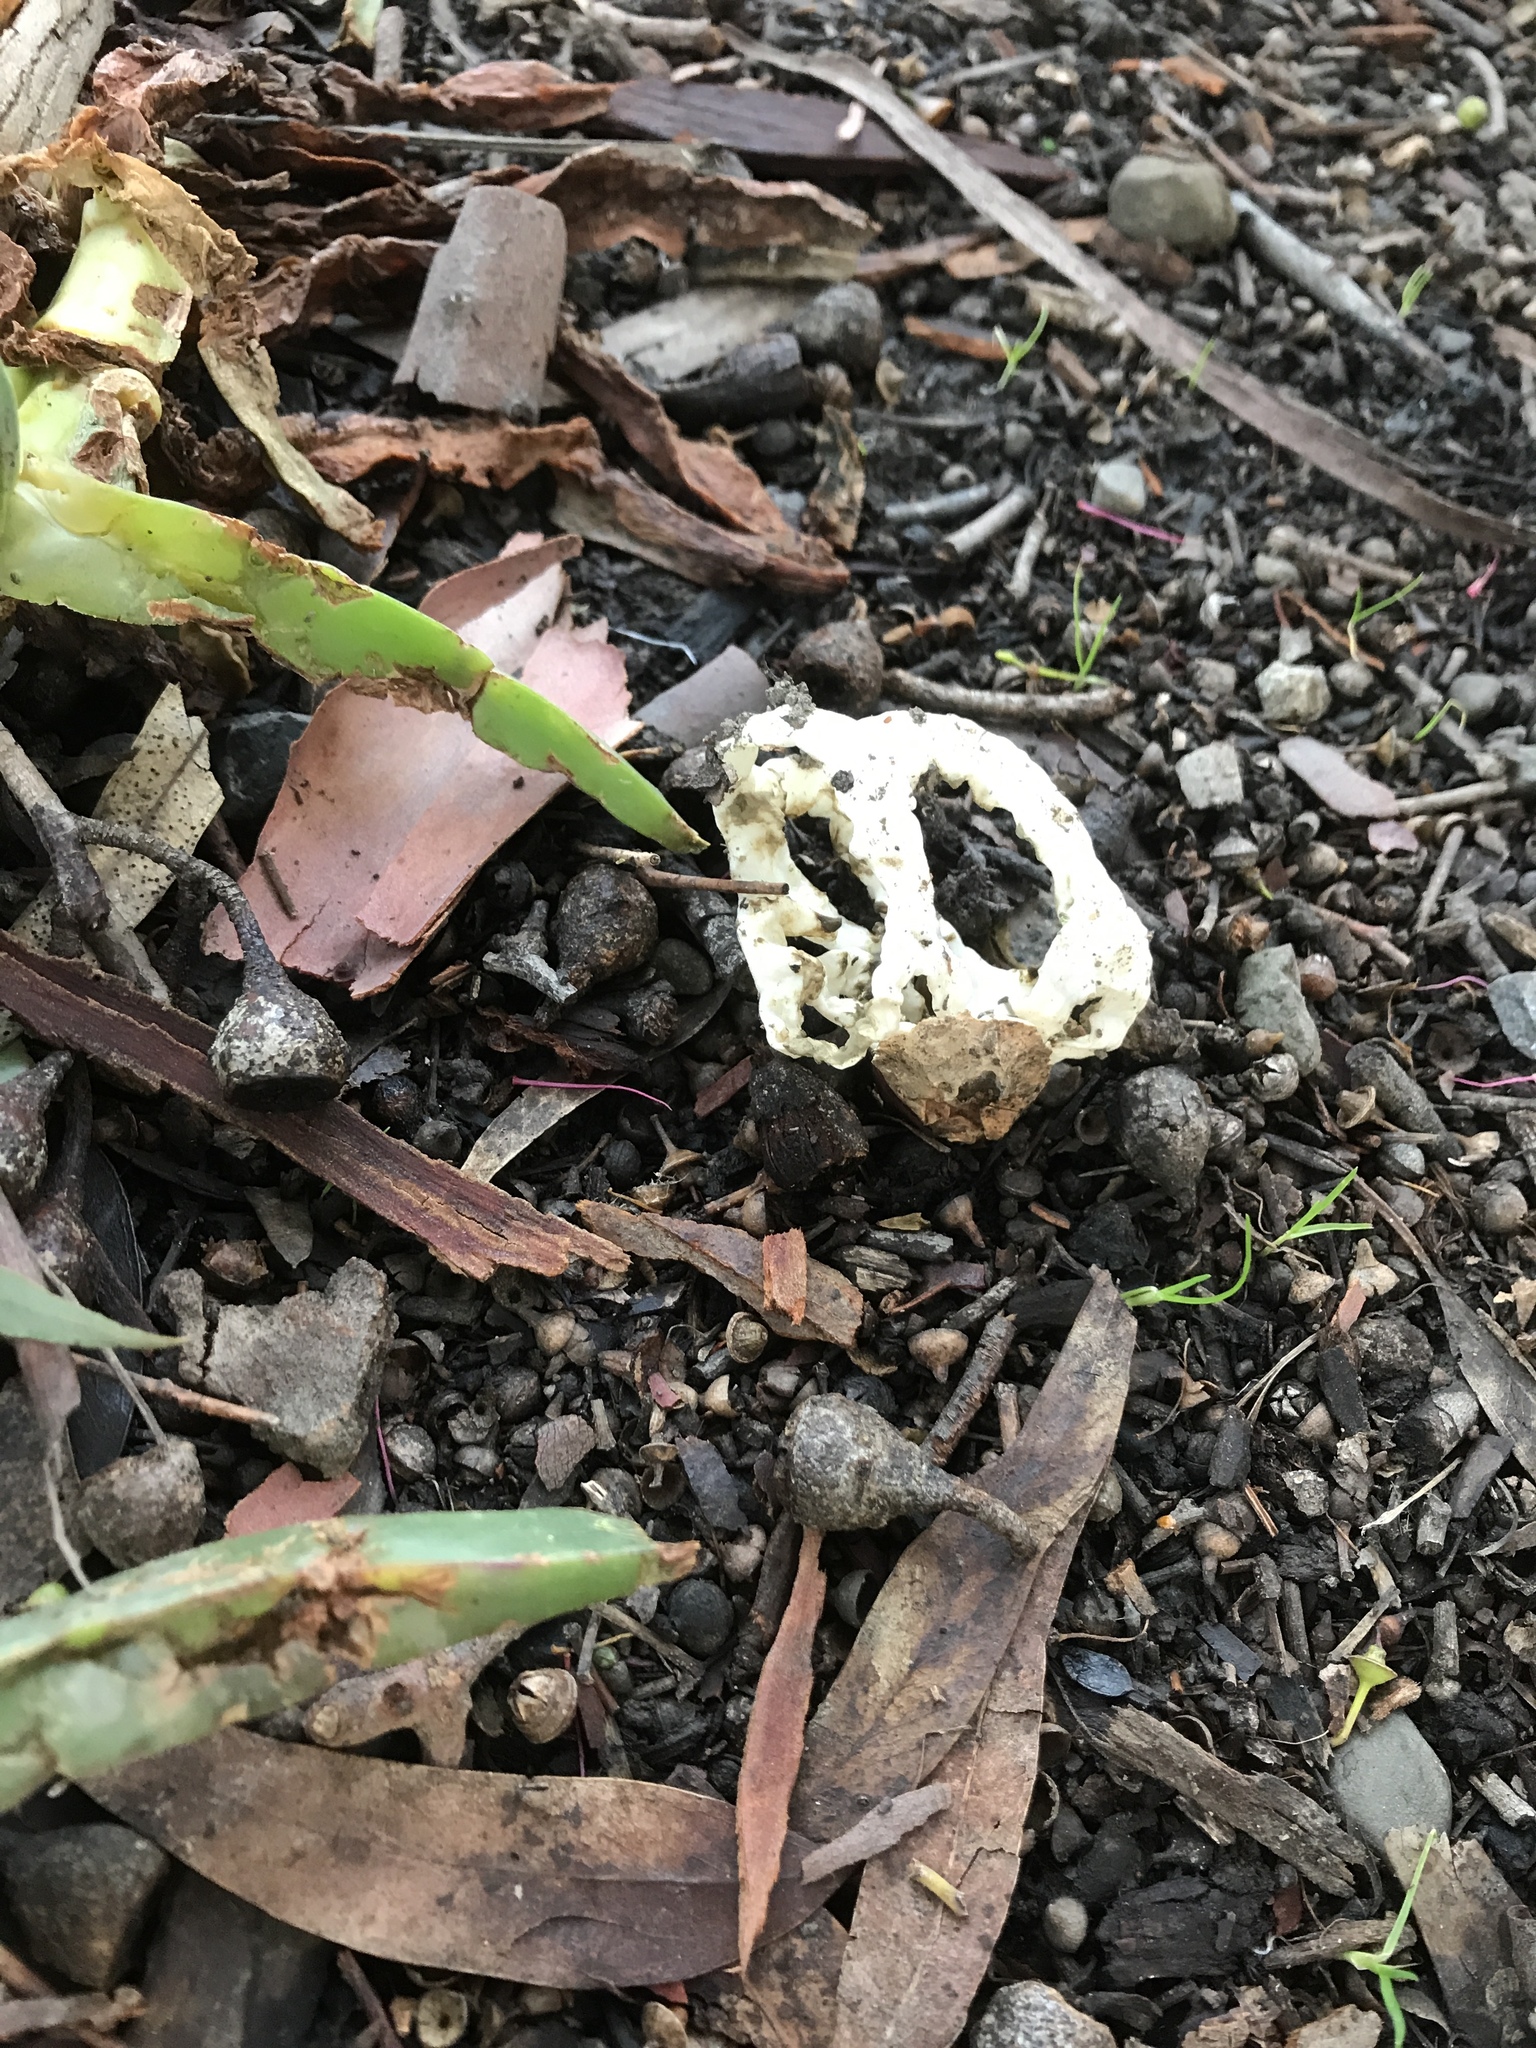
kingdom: Fungi
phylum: Basidiomycota
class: Agaricomycetes
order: Phallales
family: Phallaceae
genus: Ileodictyon
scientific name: Ileodictyon cibarium
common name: Basket fungus
